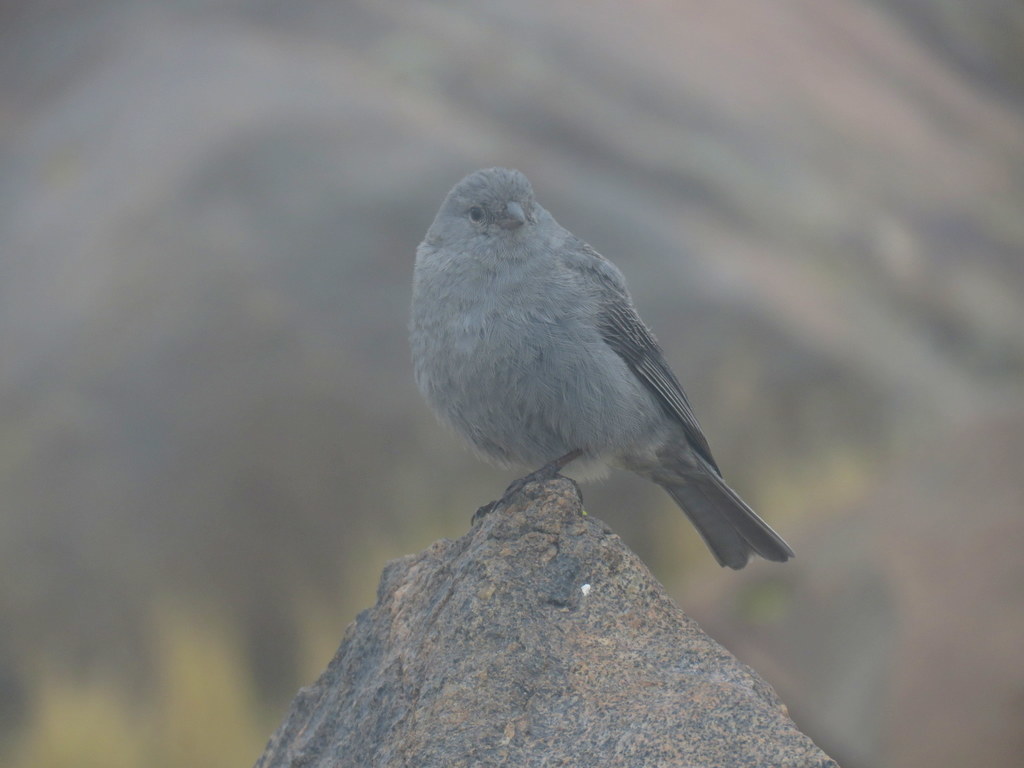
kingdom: Animalia
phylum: Chordata
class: Aves
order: Passeriformes
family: Thraupidae
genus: Geospizopsis
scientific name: Geospizopsis unicolor
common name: Plumbeous sierra-finch
